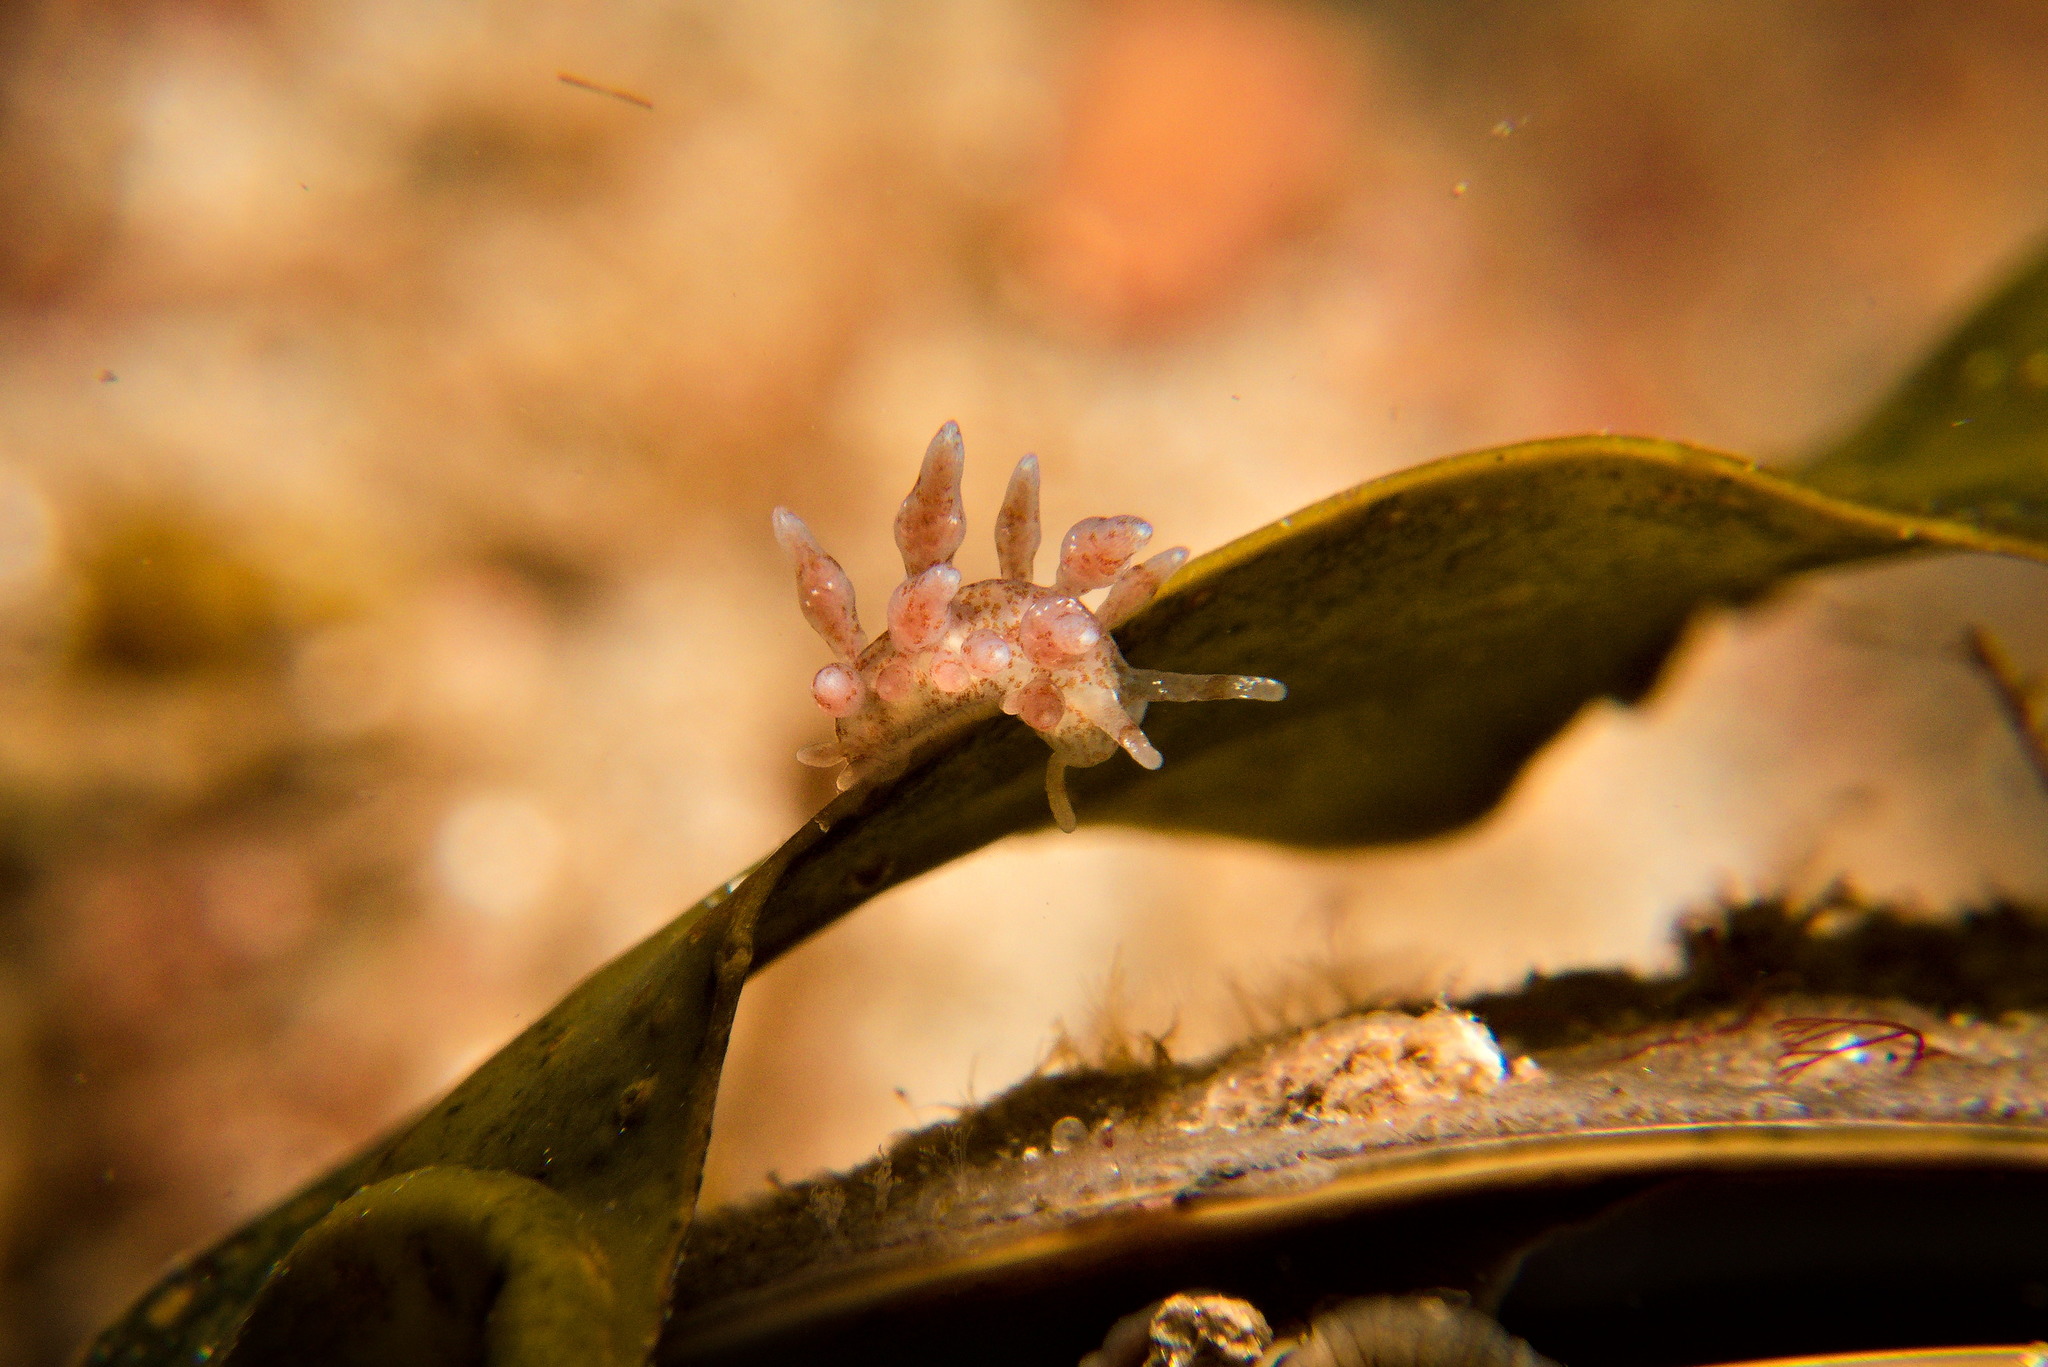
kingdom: Animalia
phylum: Mollusca
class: Gastropoda
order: Nudibranchia
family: Eubranchidae
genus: Eubranchus
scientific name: Eubranchus rupium
